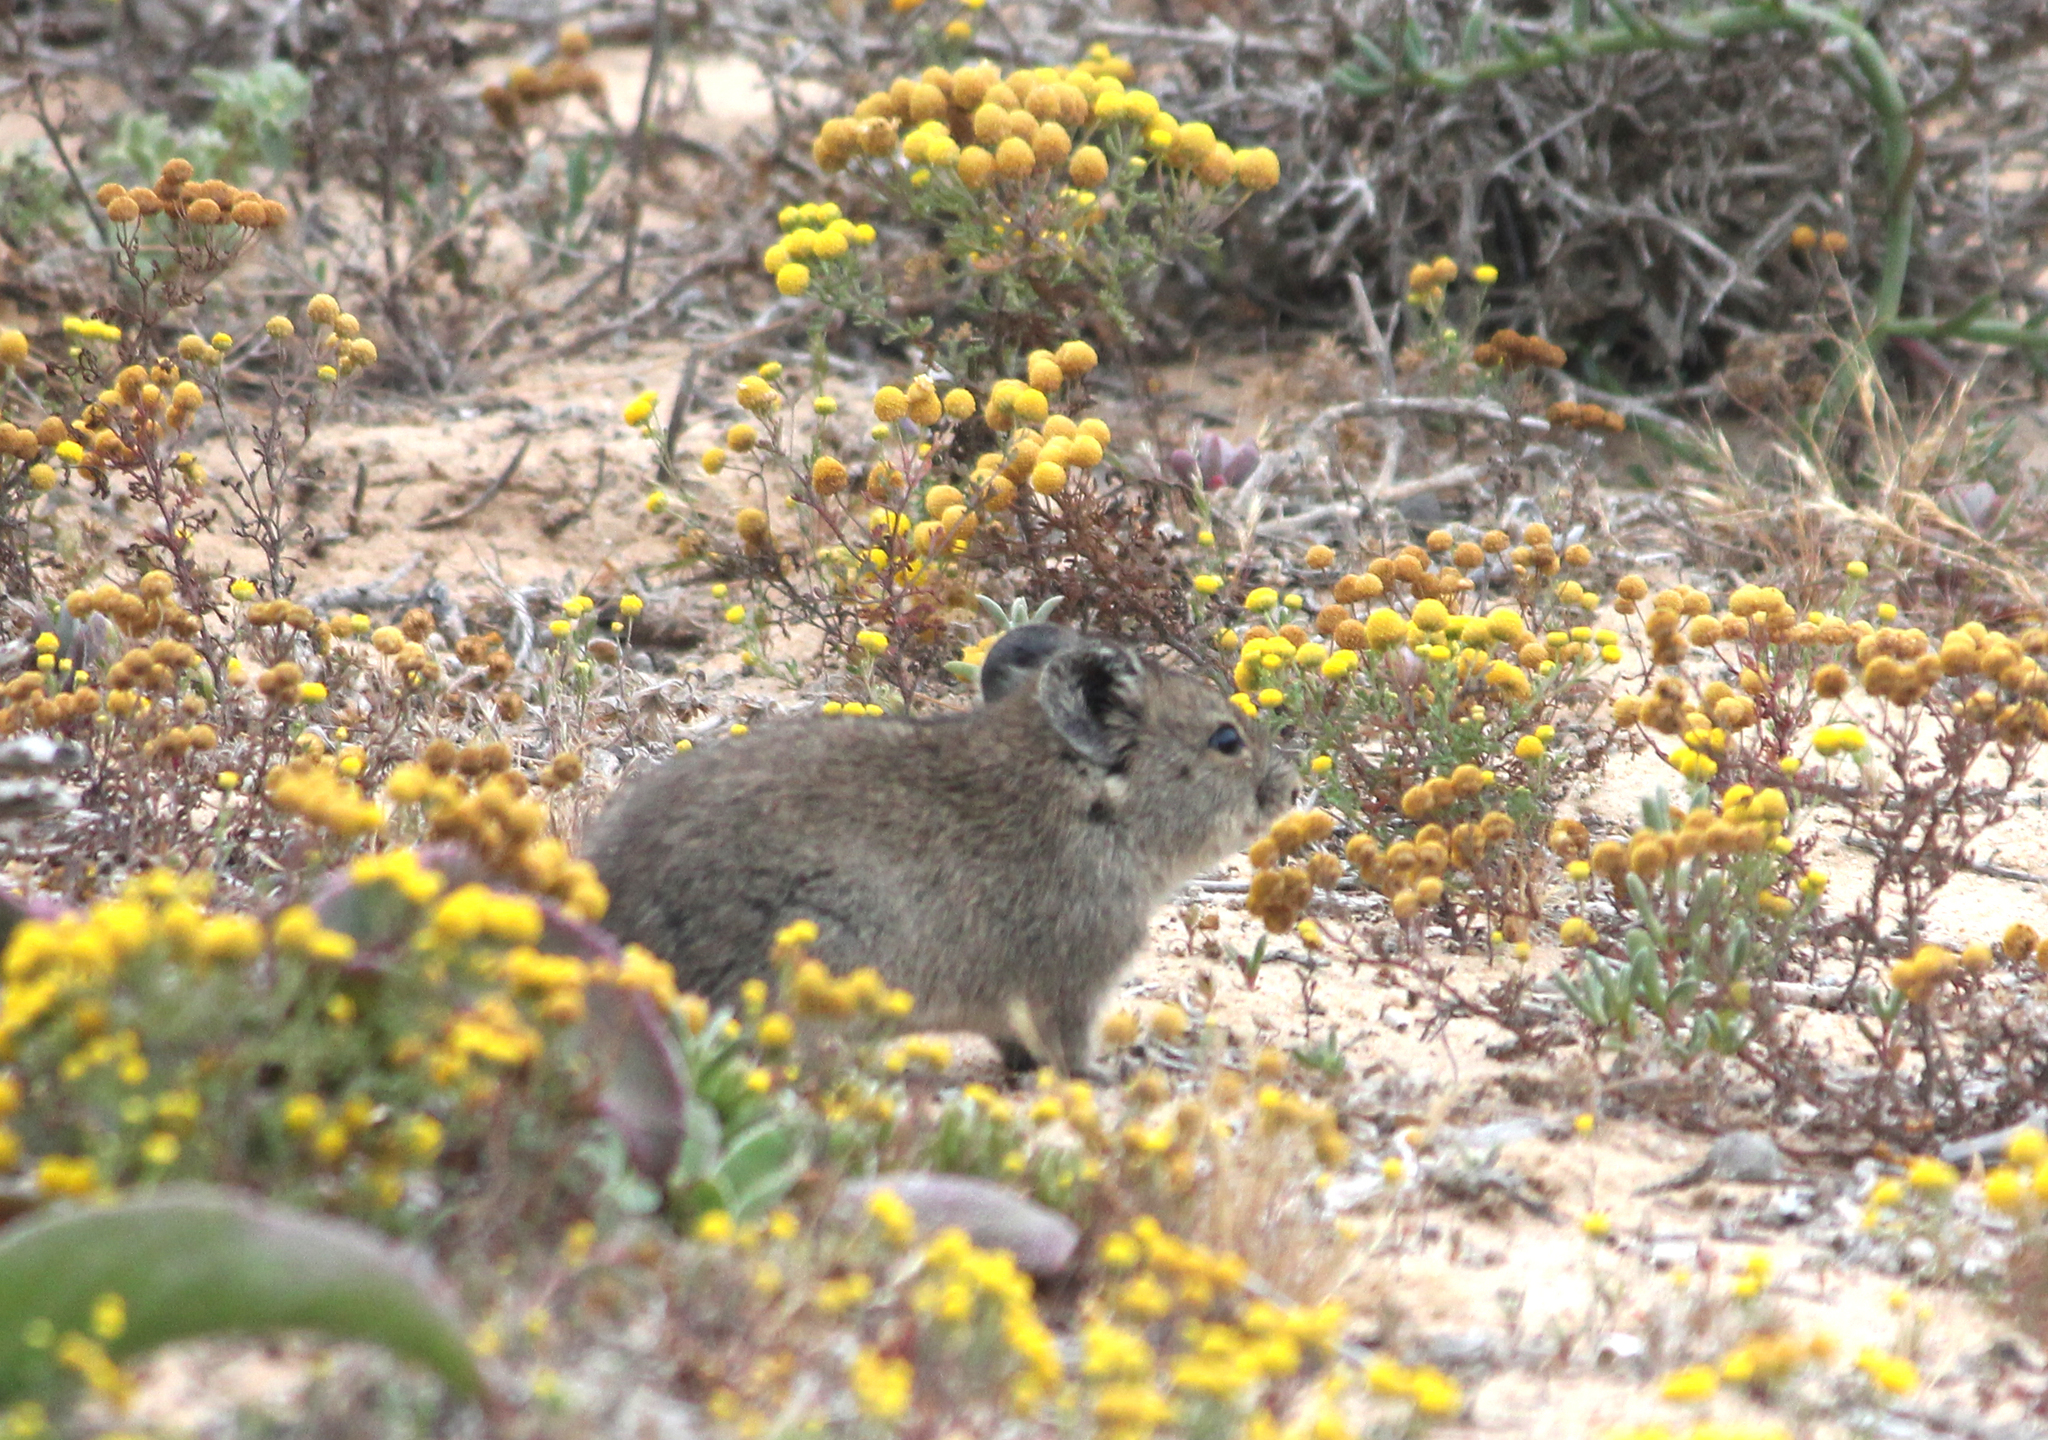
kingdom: Animalia
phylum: Chordata
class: Mammalia
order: Rodentia
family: Muridae
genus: Myotomys
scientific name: Myotomys unisulcatus
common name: Bush karroo rat
